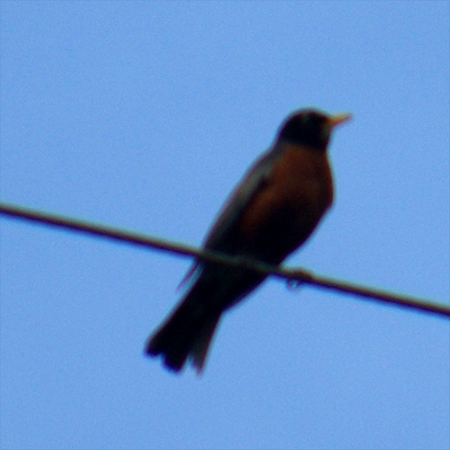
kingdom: Animalia
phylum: Chordata
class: Aves
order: Passeriformes
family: Turdidae
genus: Turdus
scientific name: Turdus migratorius
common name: American robin
